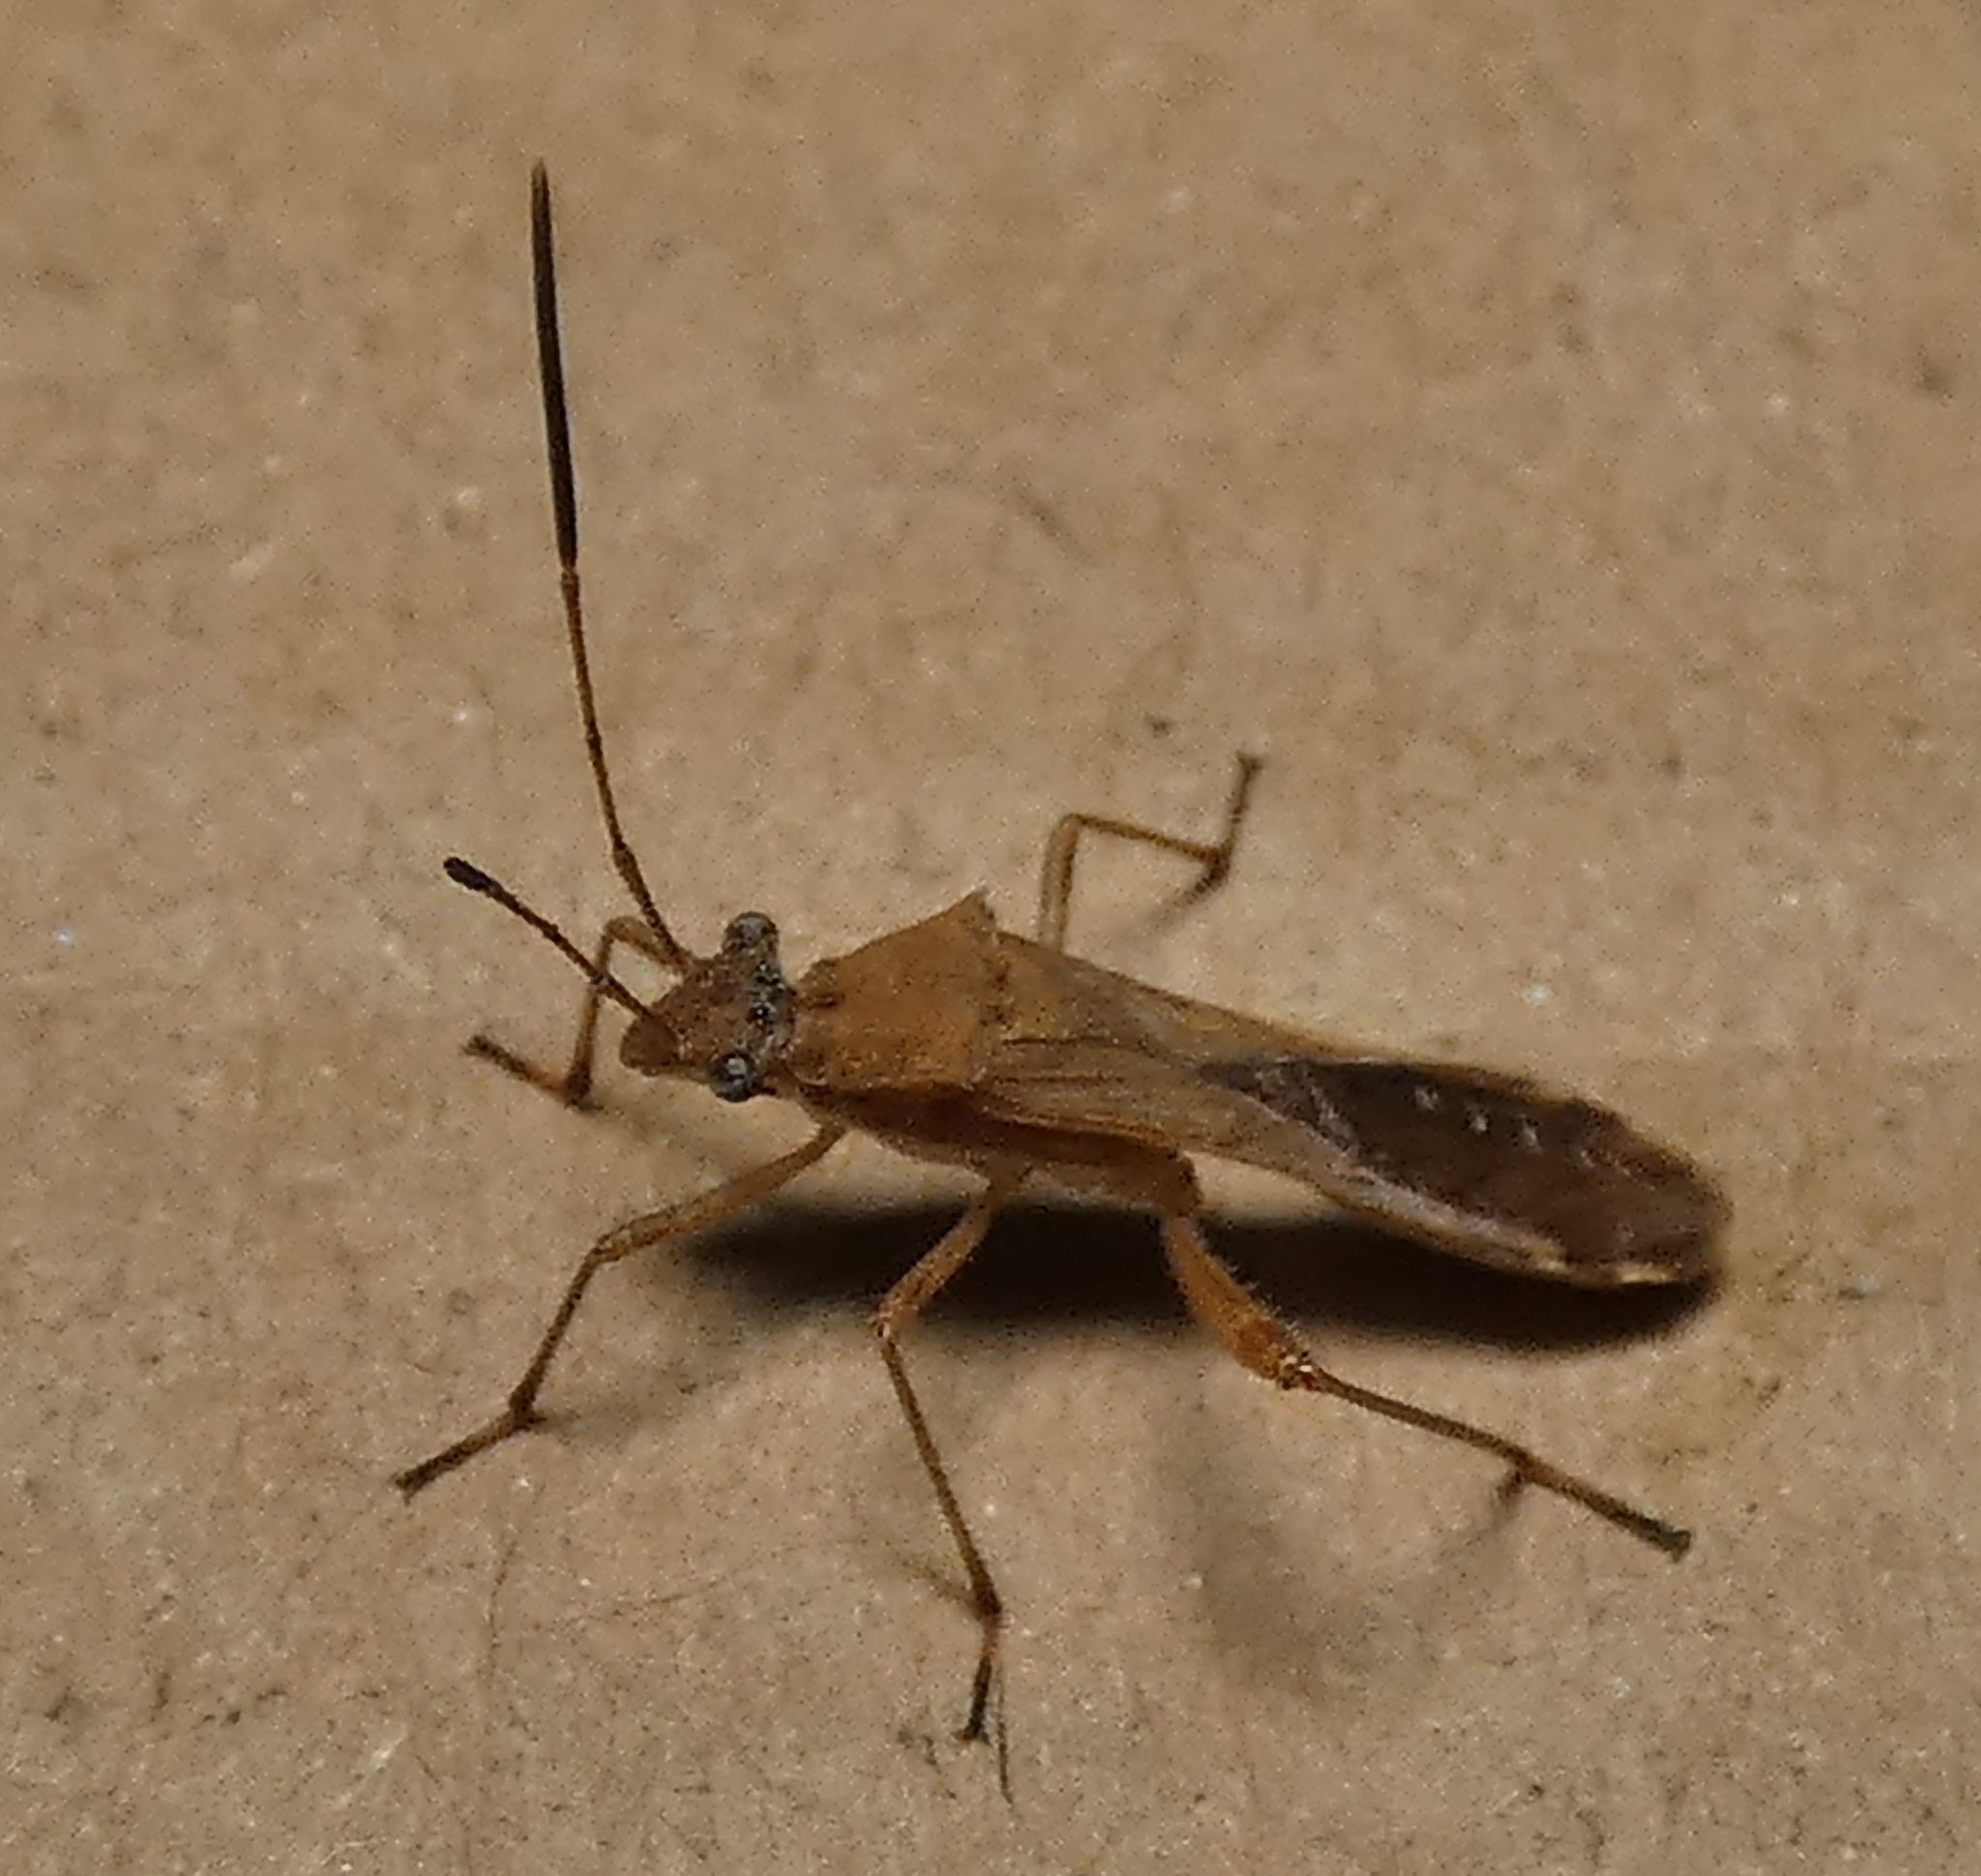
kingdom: Animalia
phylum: Arthropoda
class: Insecta
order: Hemiptera
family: Alydidae
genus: Neomegalotomus
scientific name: Neomegalotomus parvus
